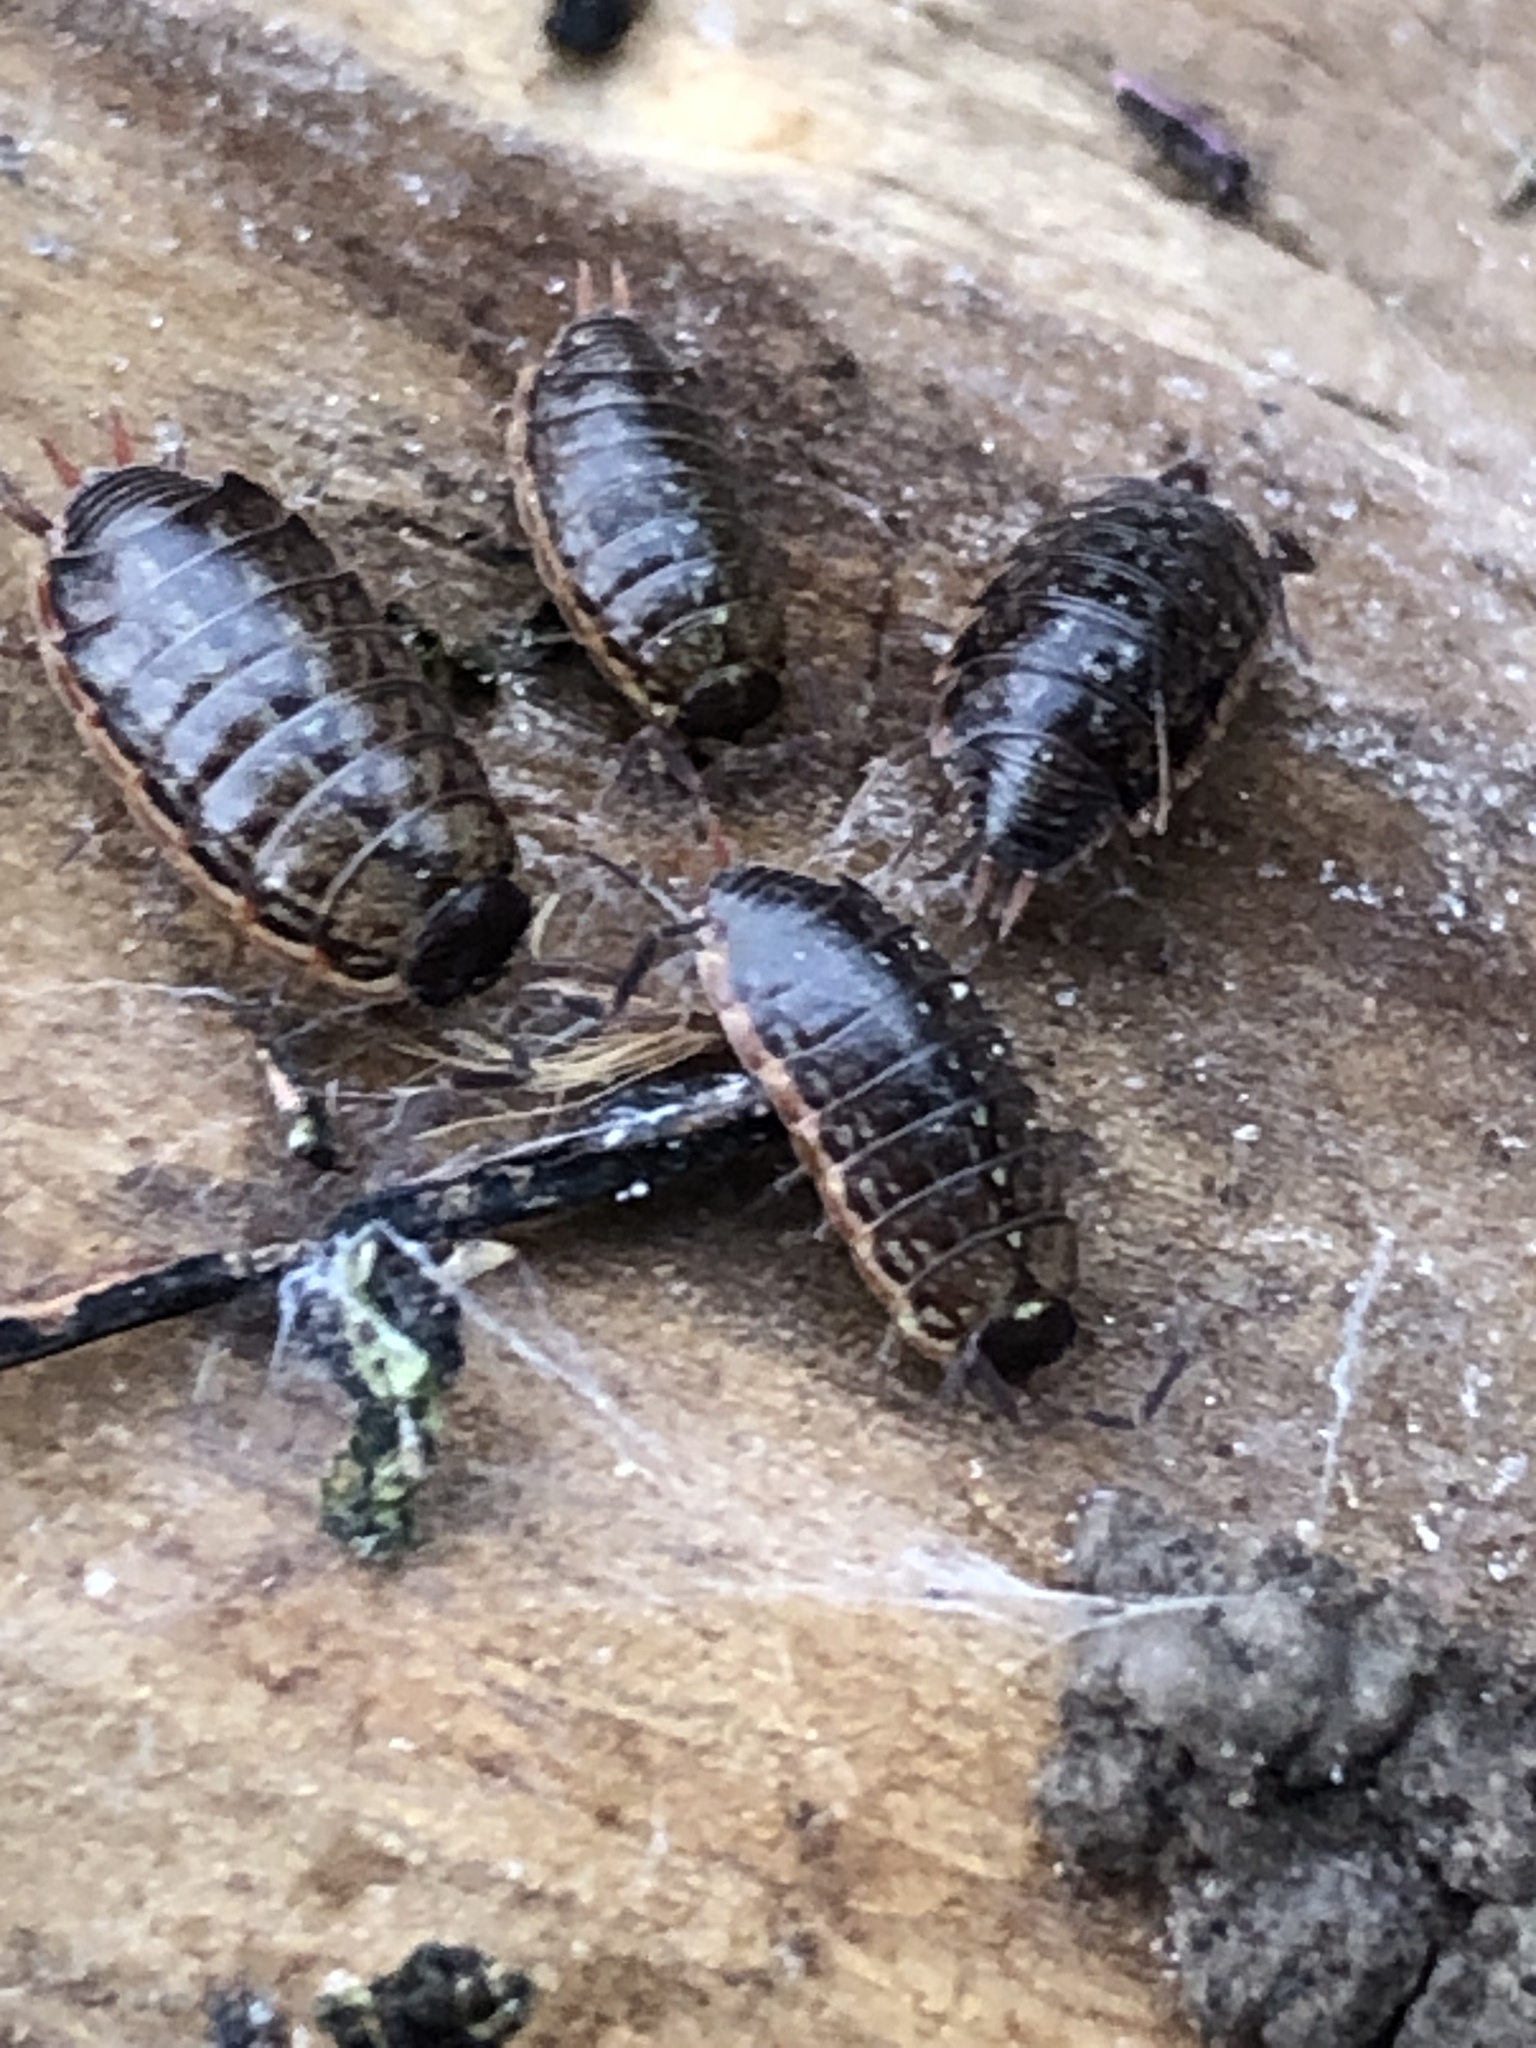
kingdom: Animalia
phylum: Arthropoda
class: Malacostraca
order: Isopoda
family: Philosciidae
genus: Philoscia
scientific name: Philoscia muscorum
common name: Common striped woodlouse
